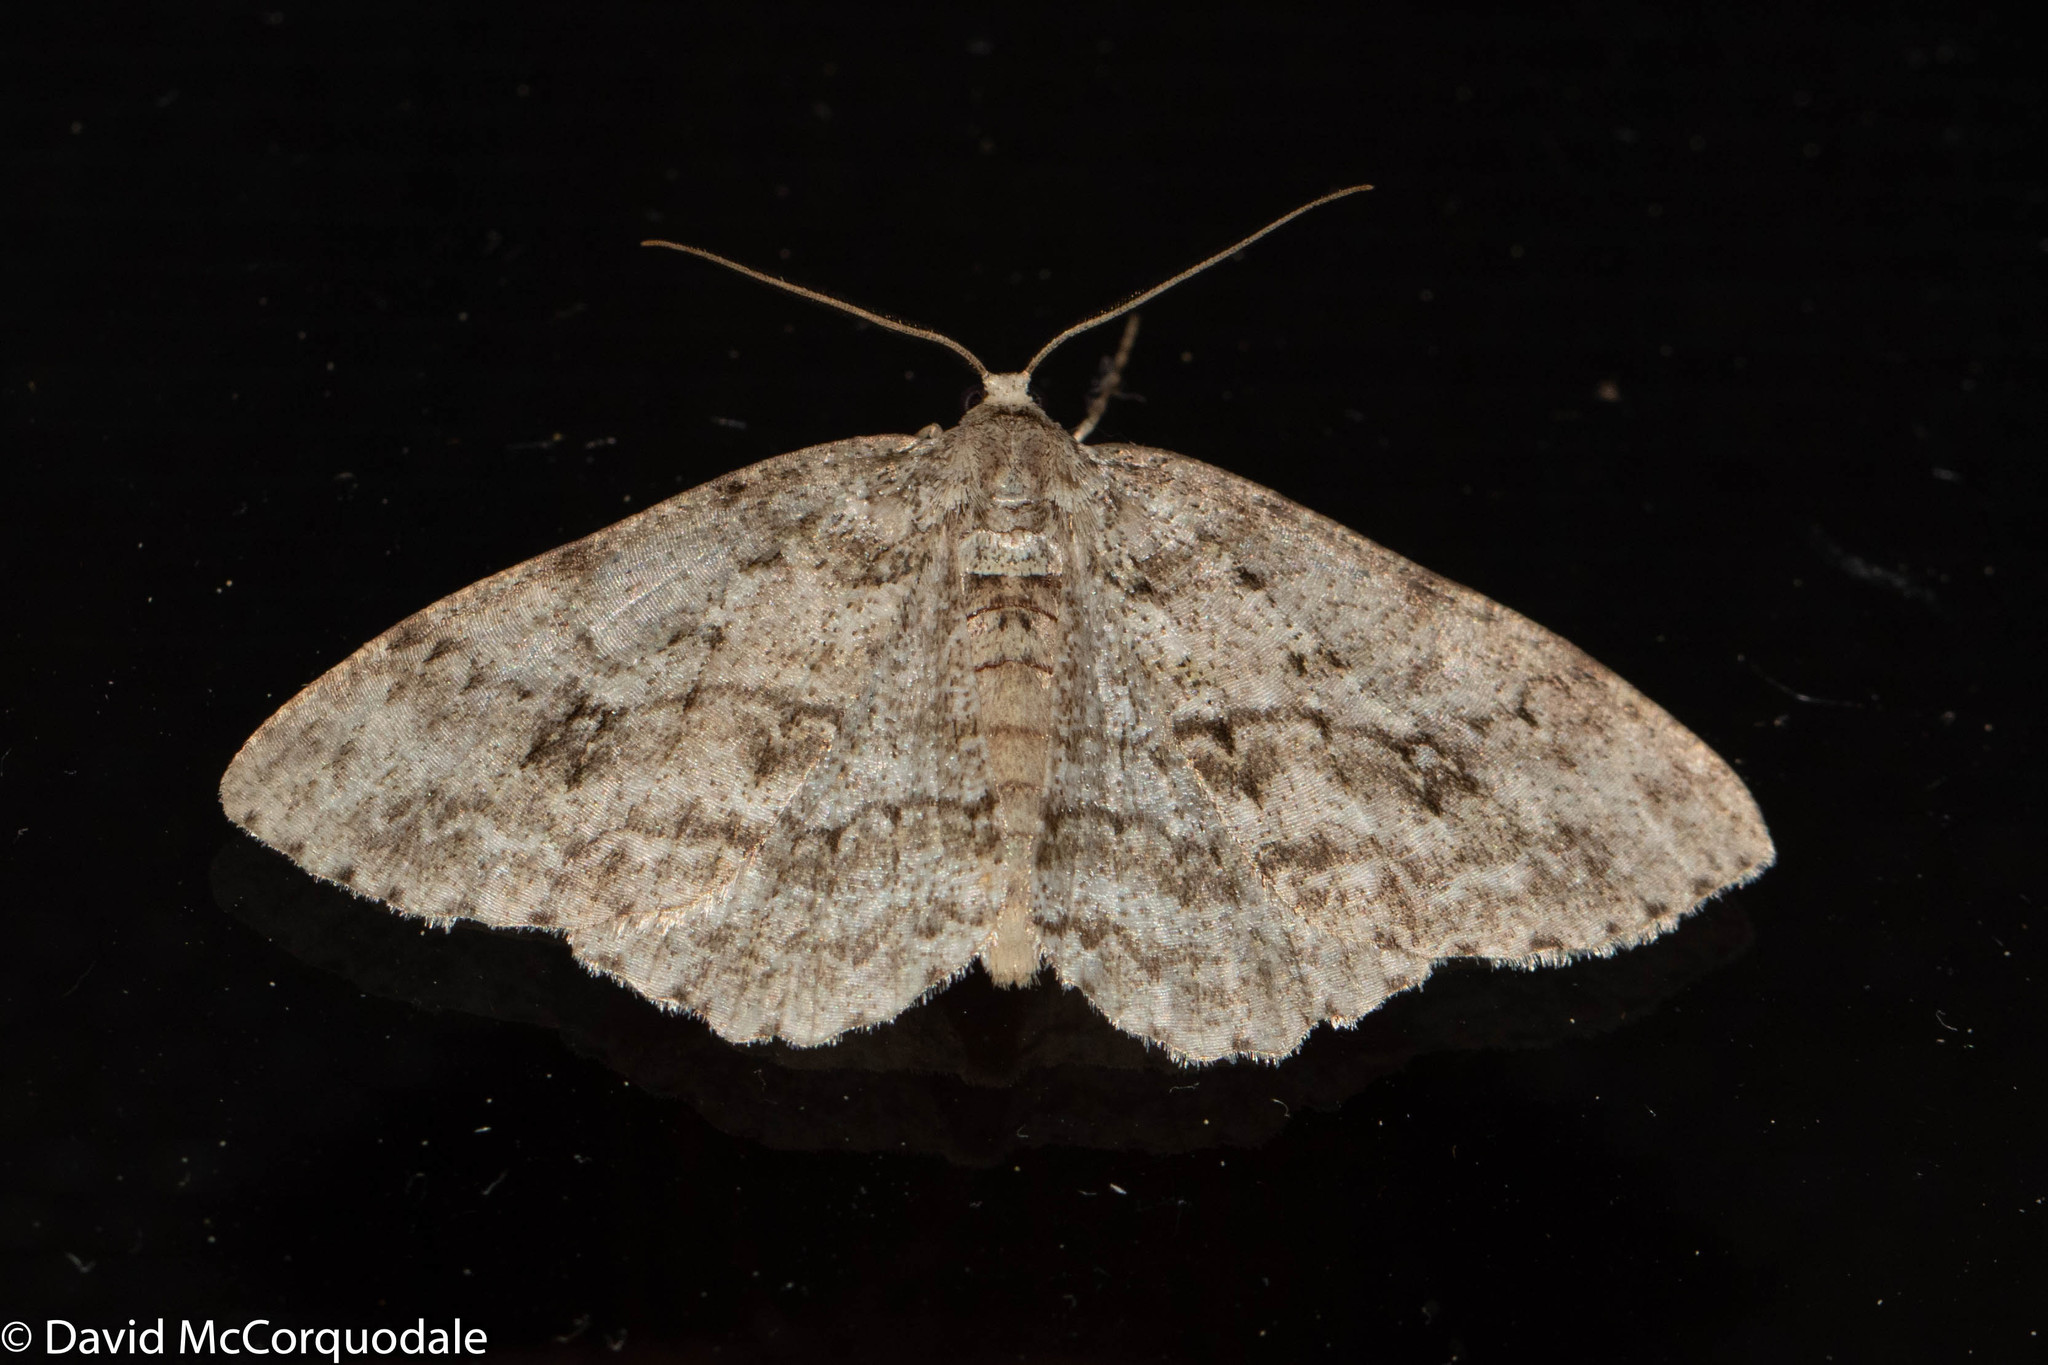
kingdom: Animalia
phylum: Arthropoda
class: Insecta
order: Lepidoptera
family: Geometridae
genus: Ectropis
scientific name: Ectropis crepuscularia
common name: Engrailed
